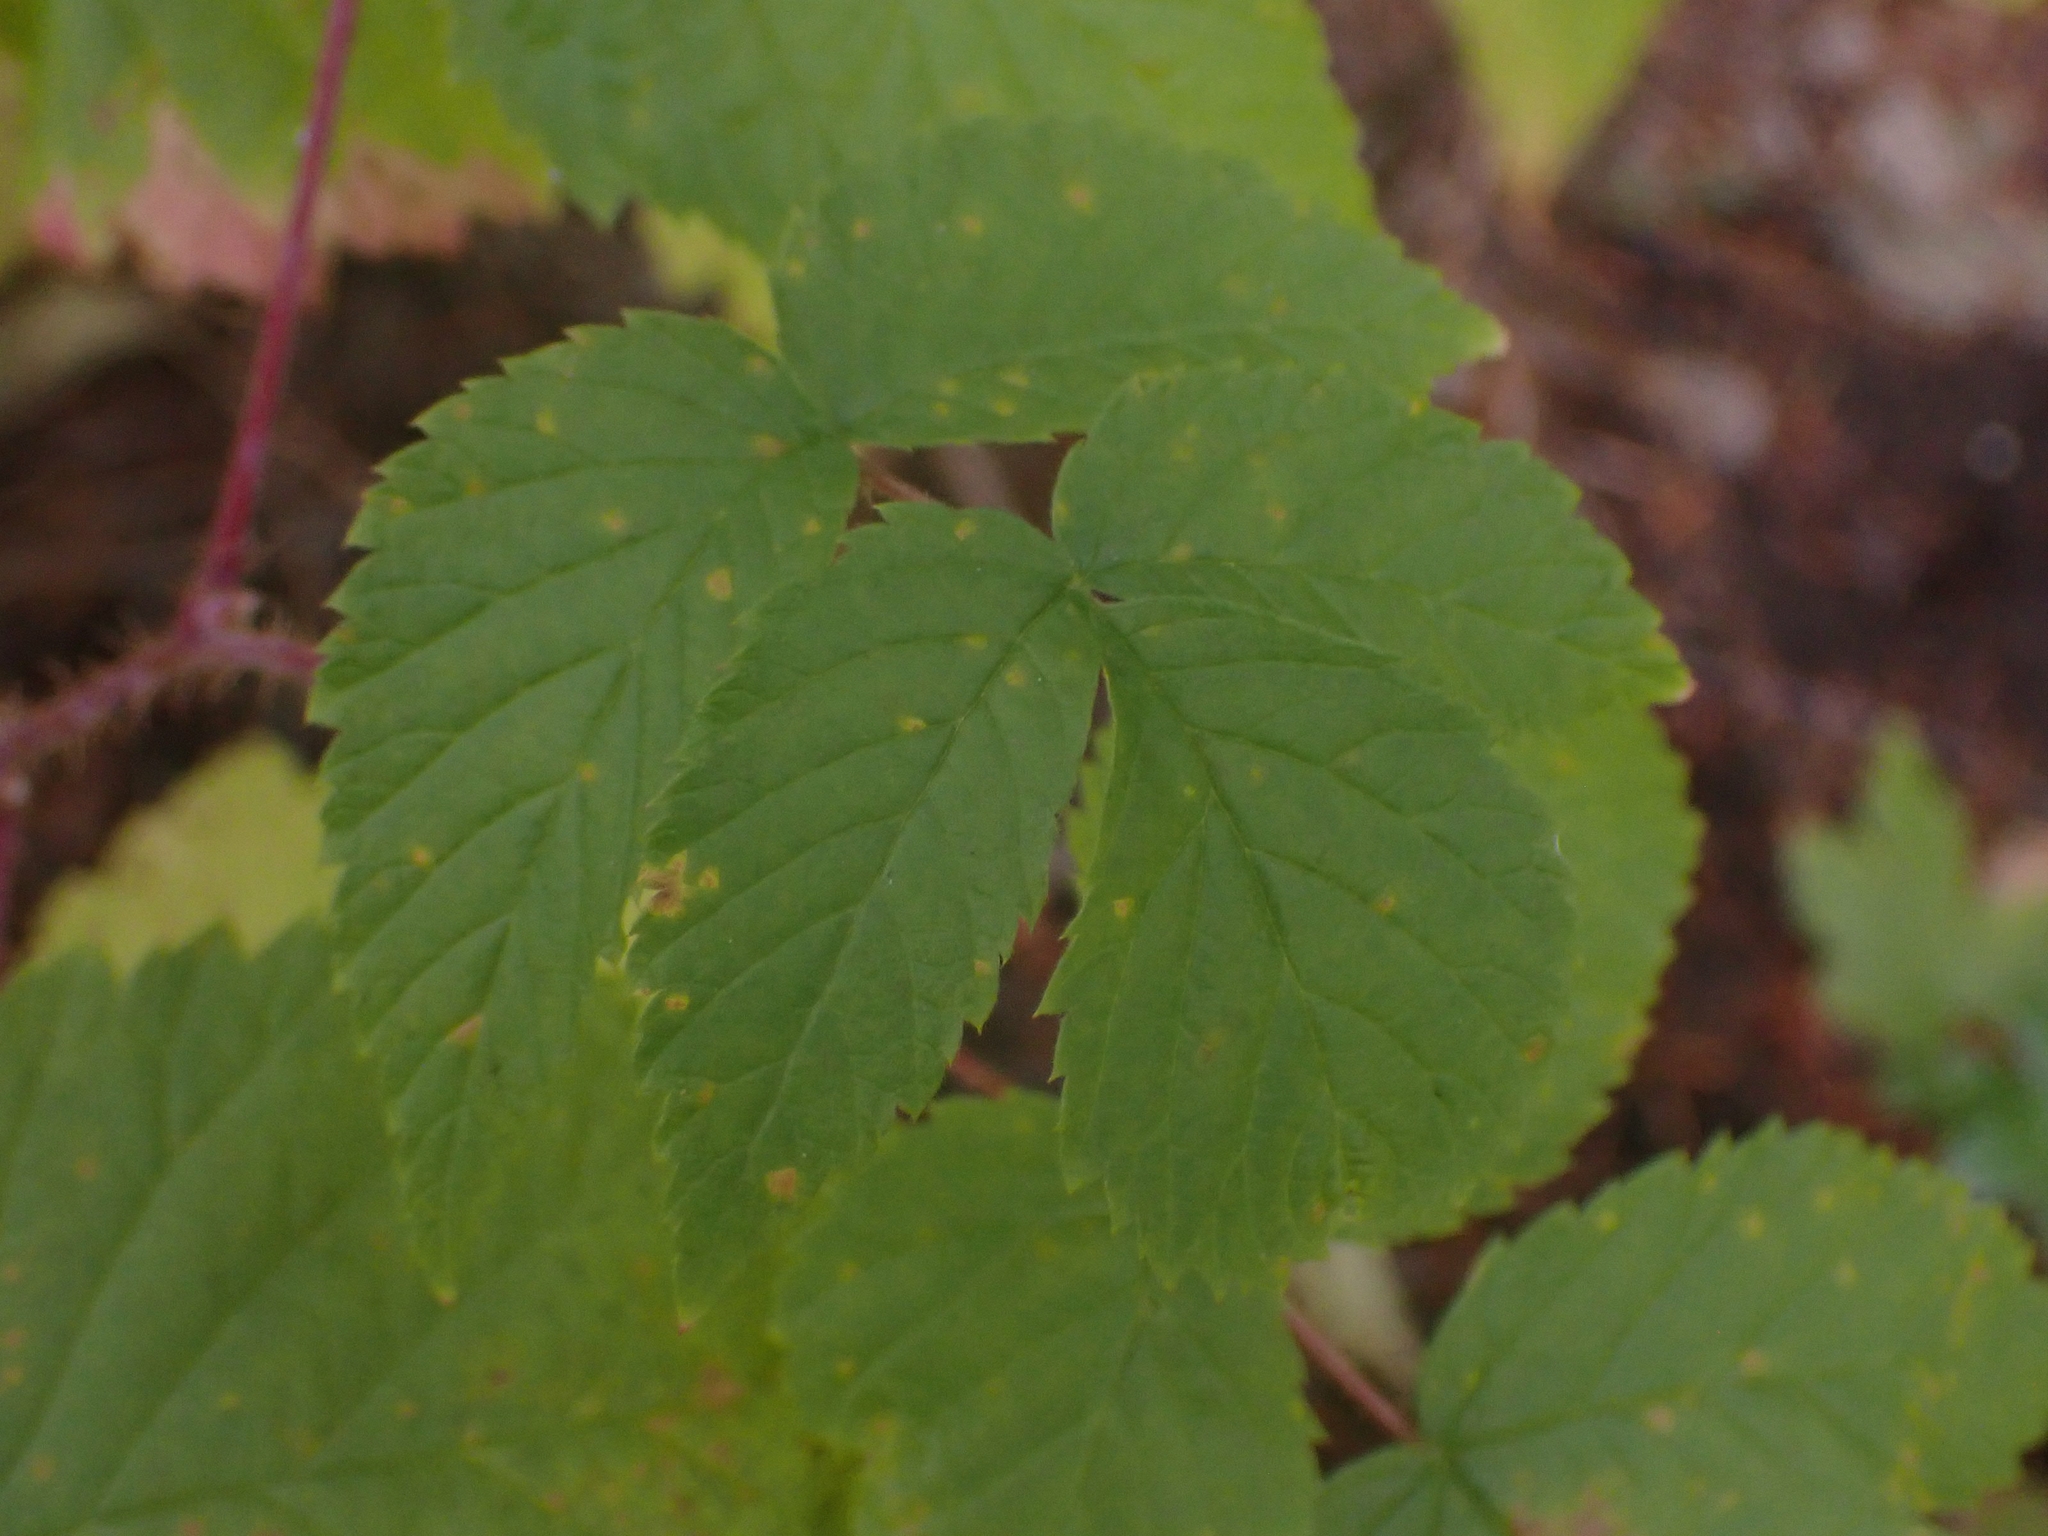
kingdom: Plantae
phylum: Tracheophyta
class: Magnoliopsida
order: Rosales
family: Rosaceae
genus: Rubus
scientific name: Rubus idaeus
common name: Raspberry
